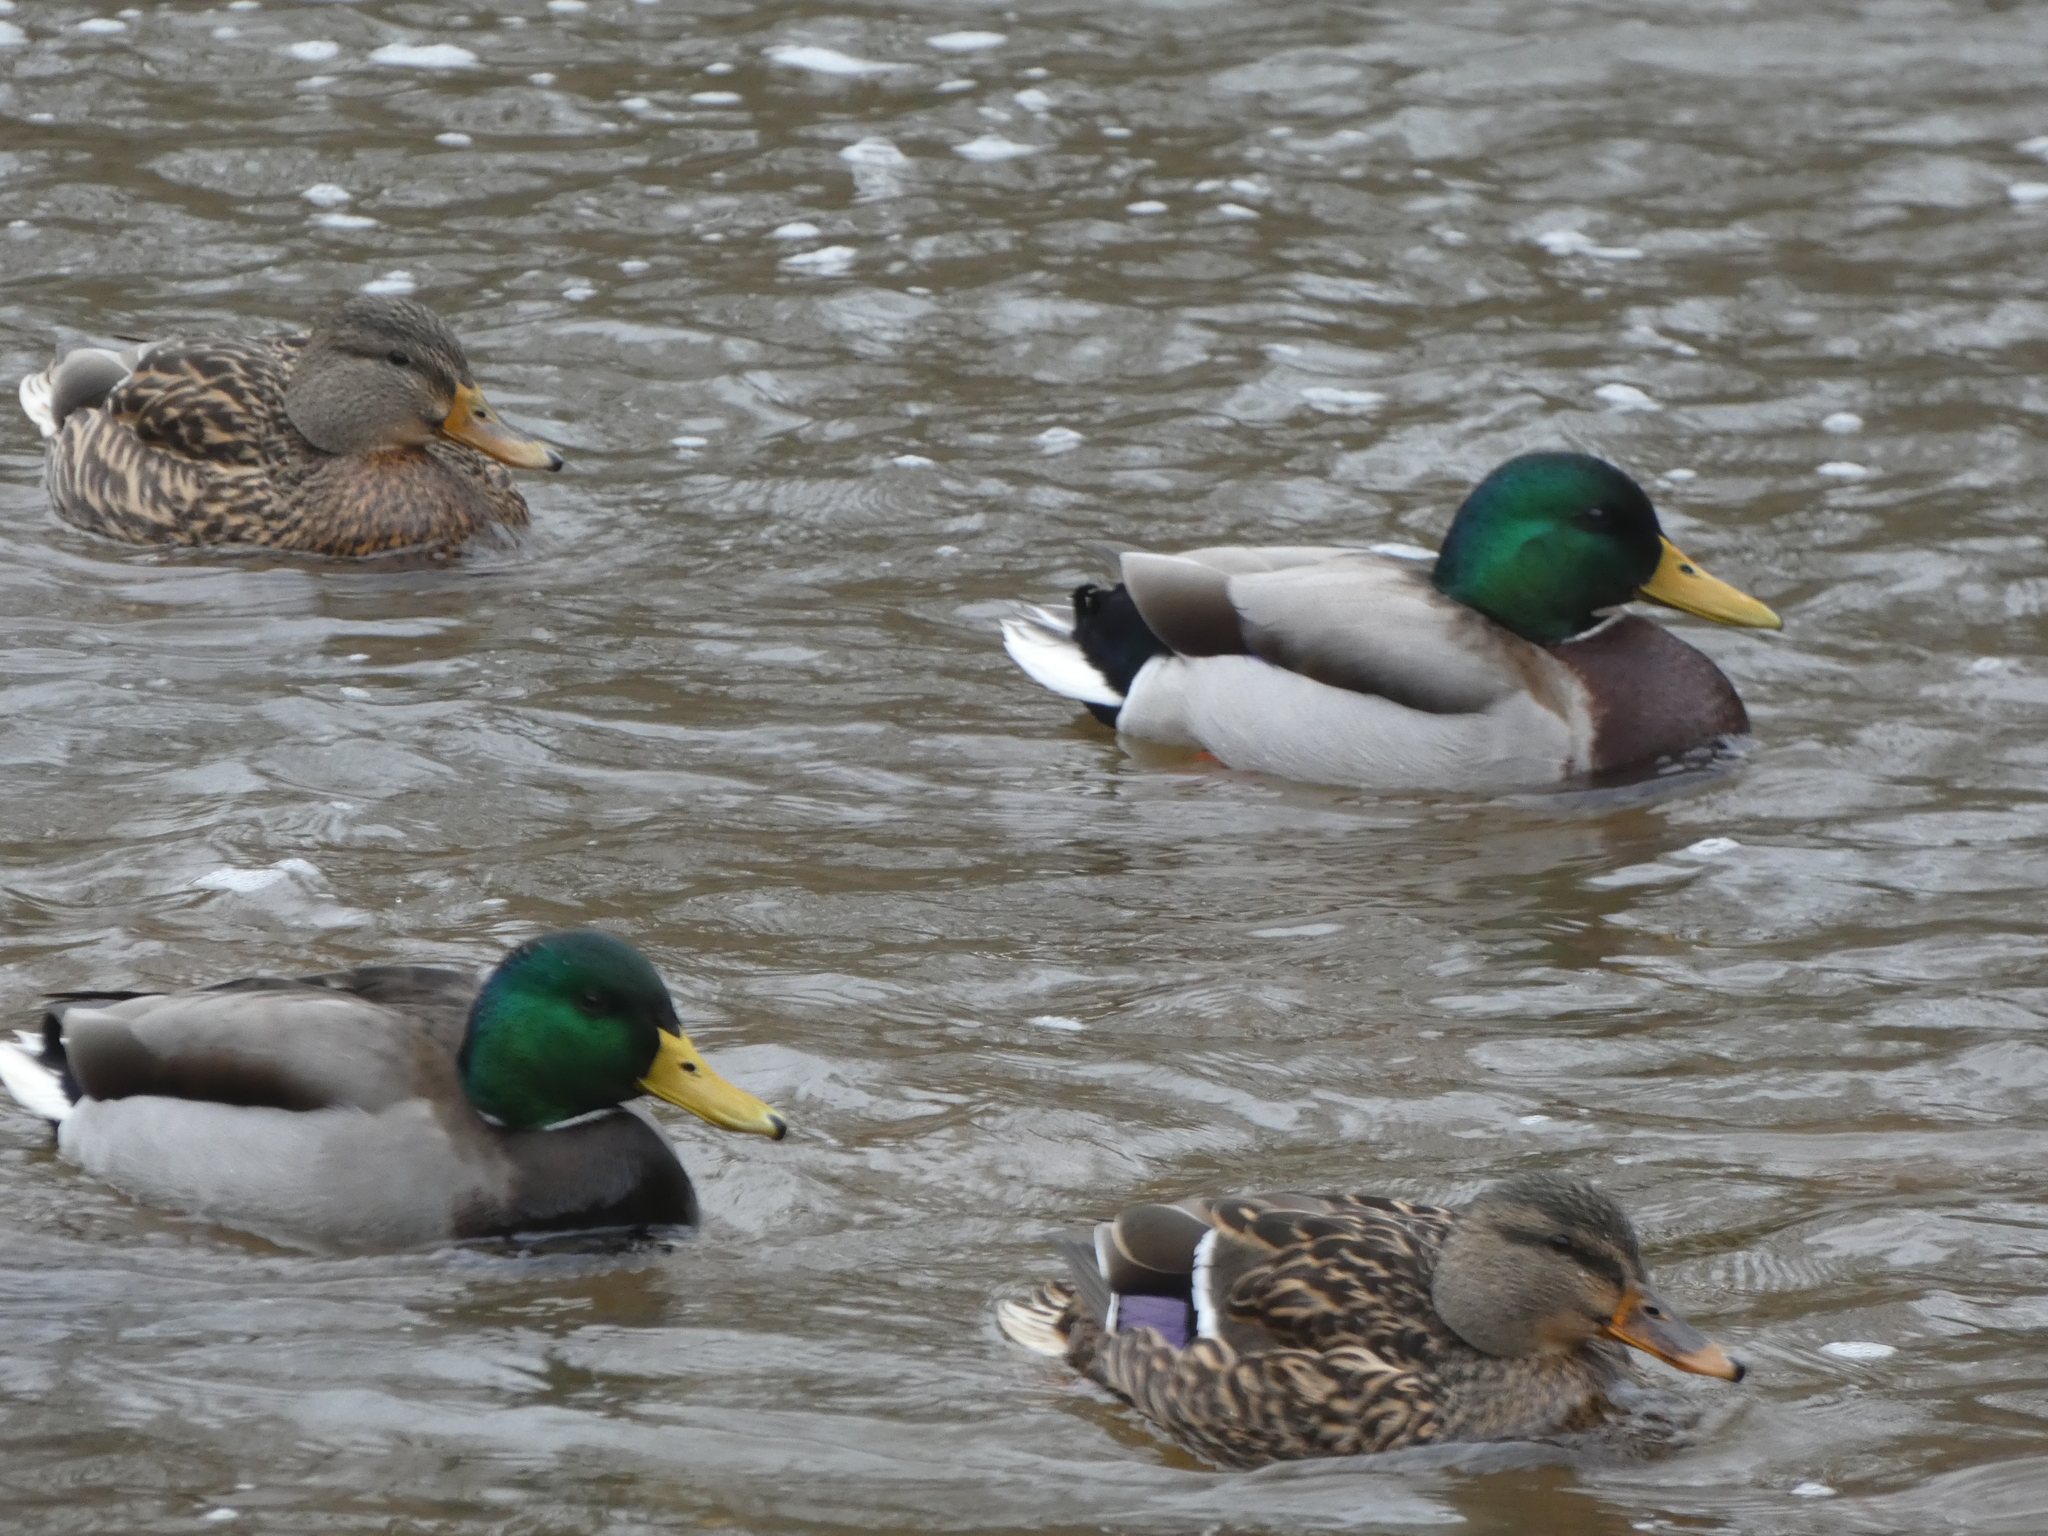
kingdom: Animalia
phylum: Chordata
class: Aves
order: Anseriformes
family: Anatidae
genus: Anas
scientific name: Anas platyrhynchos
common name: Mallard
